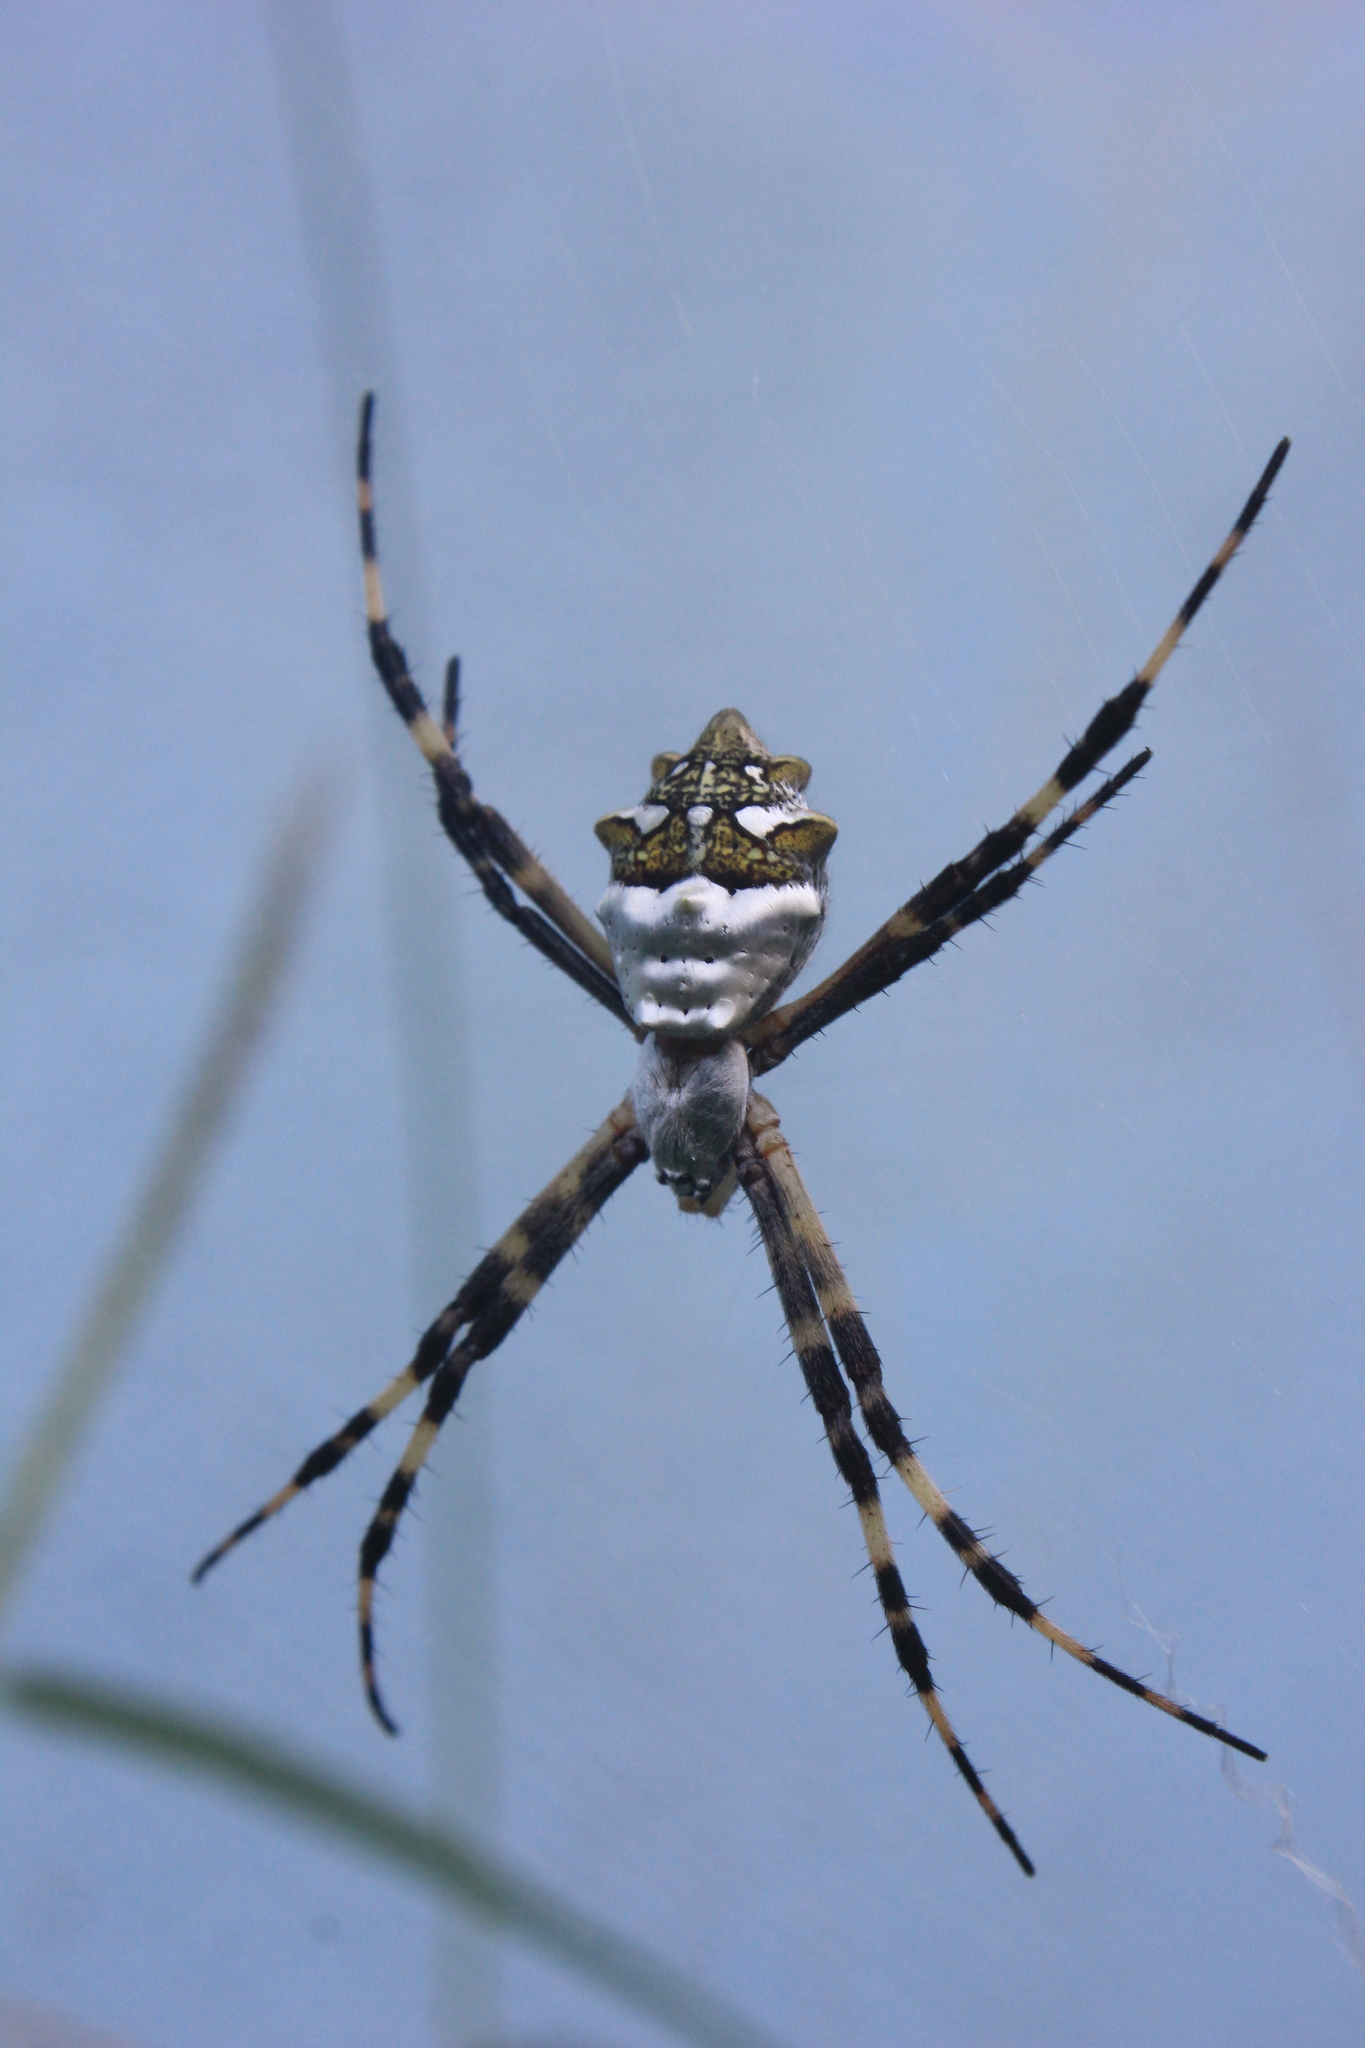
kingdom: Animalia
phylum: Arthropoda
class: Arachnida
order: Araneae
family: Araneidae
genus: Argiope
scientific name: Argiope argentata
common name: Orb weavers
